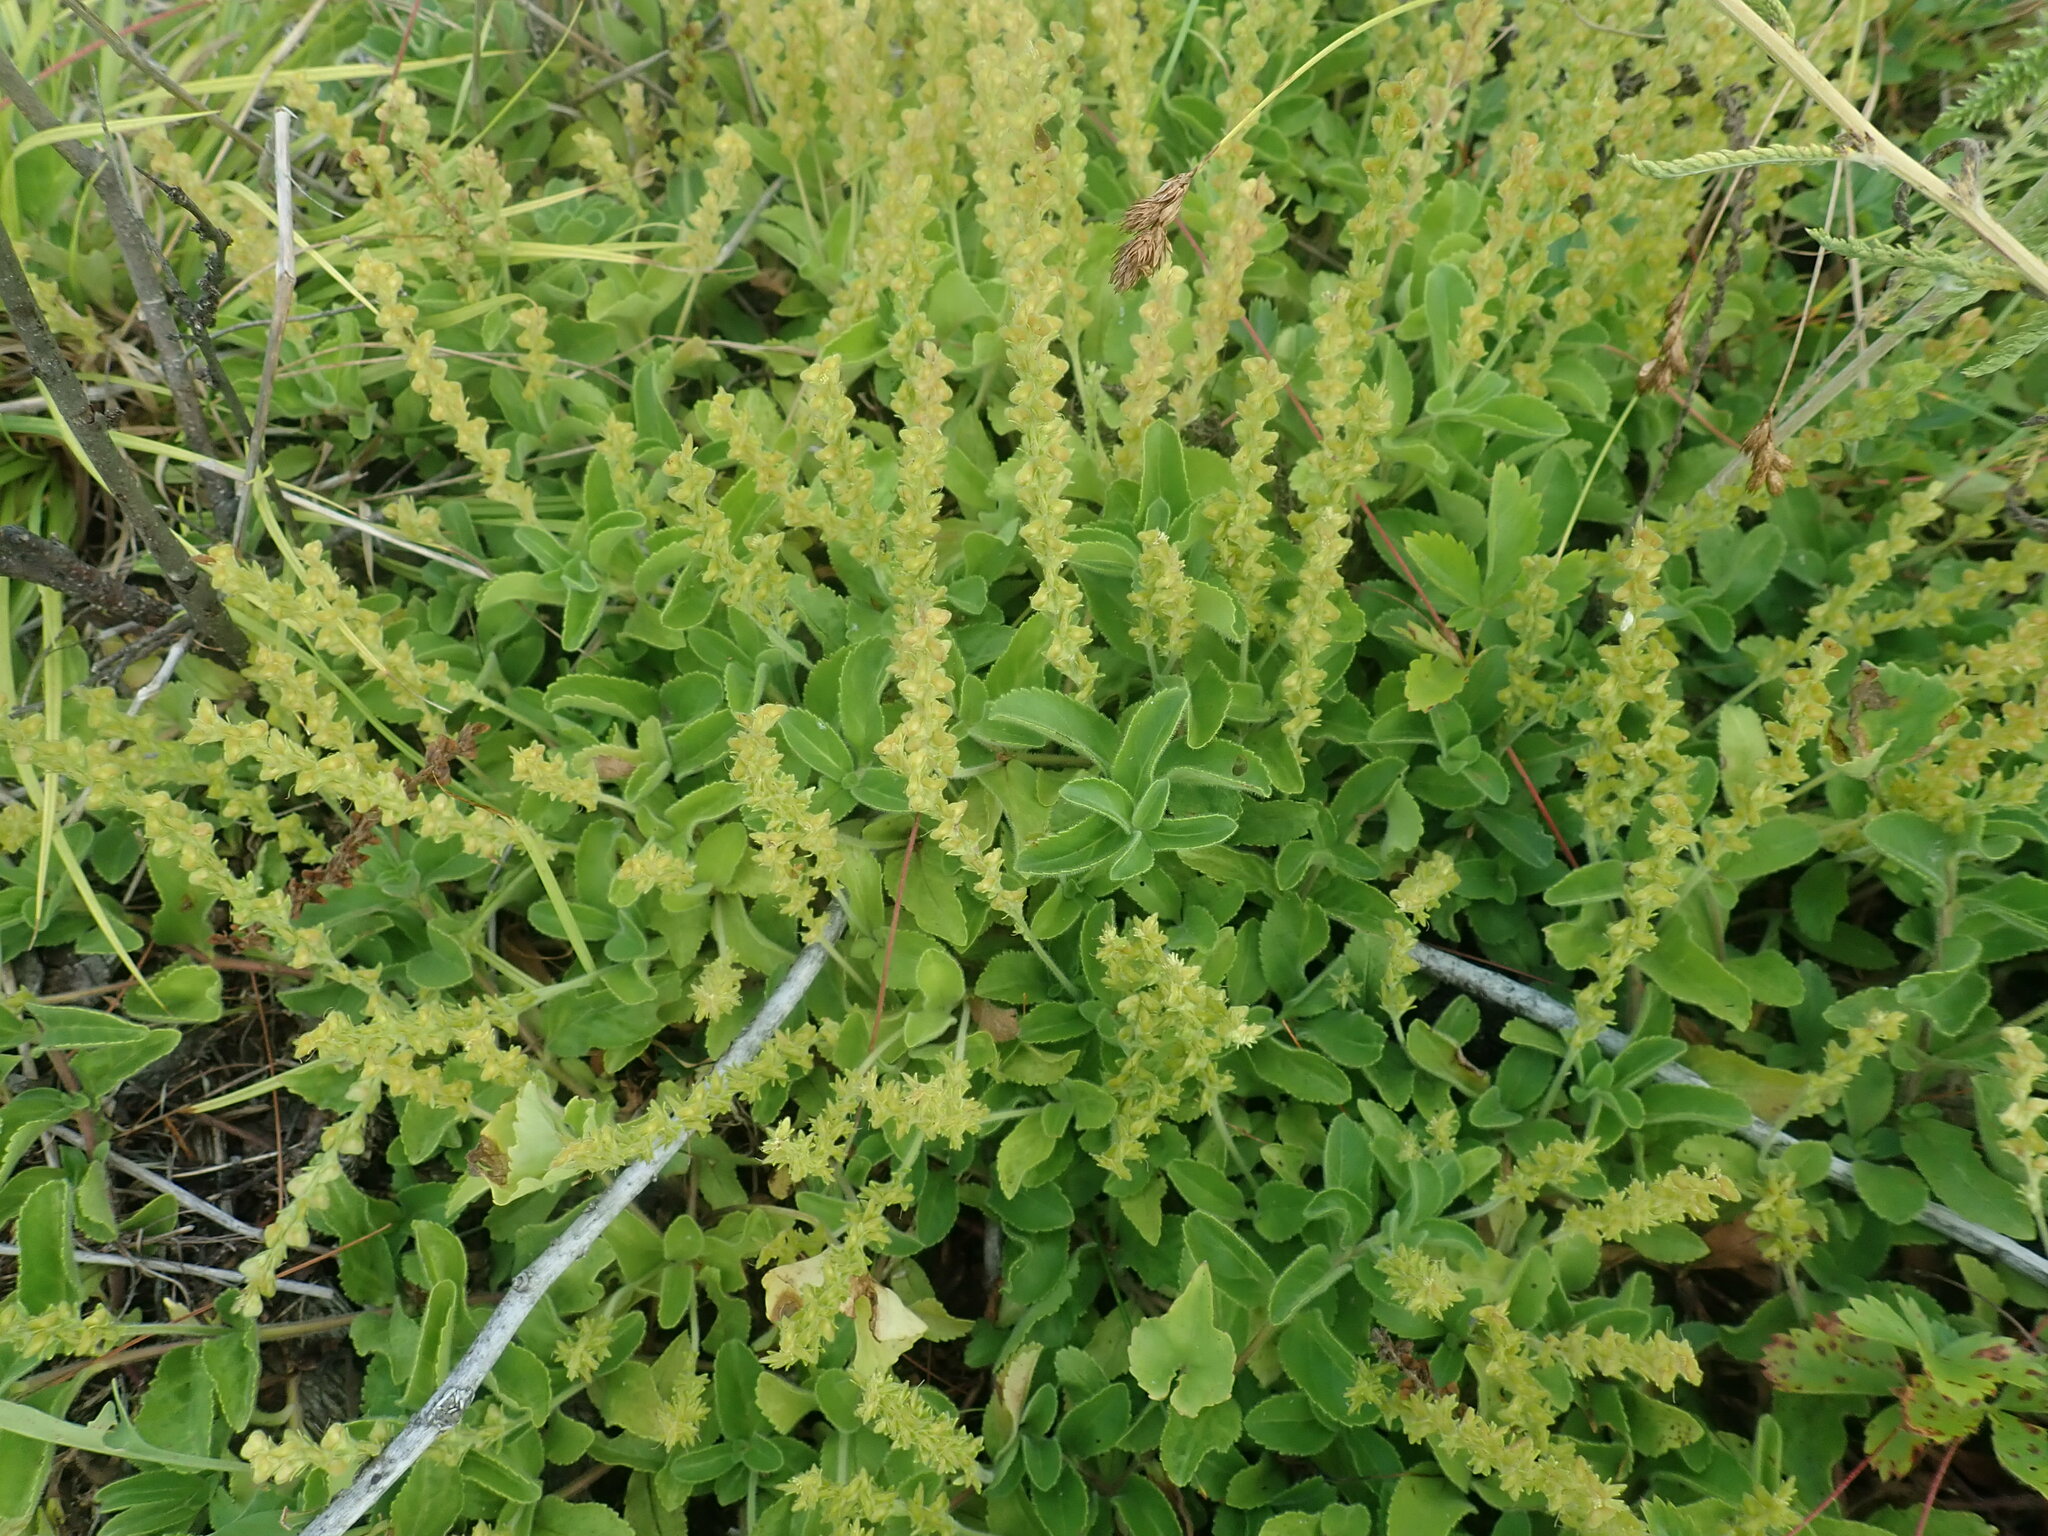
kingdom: Plantae
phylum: Tracheophyta
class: Magnoliopsida
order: Lamiales
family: Plantaginaceae
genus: Veronica
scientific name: Veronica officinalis
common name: Common speedwell
